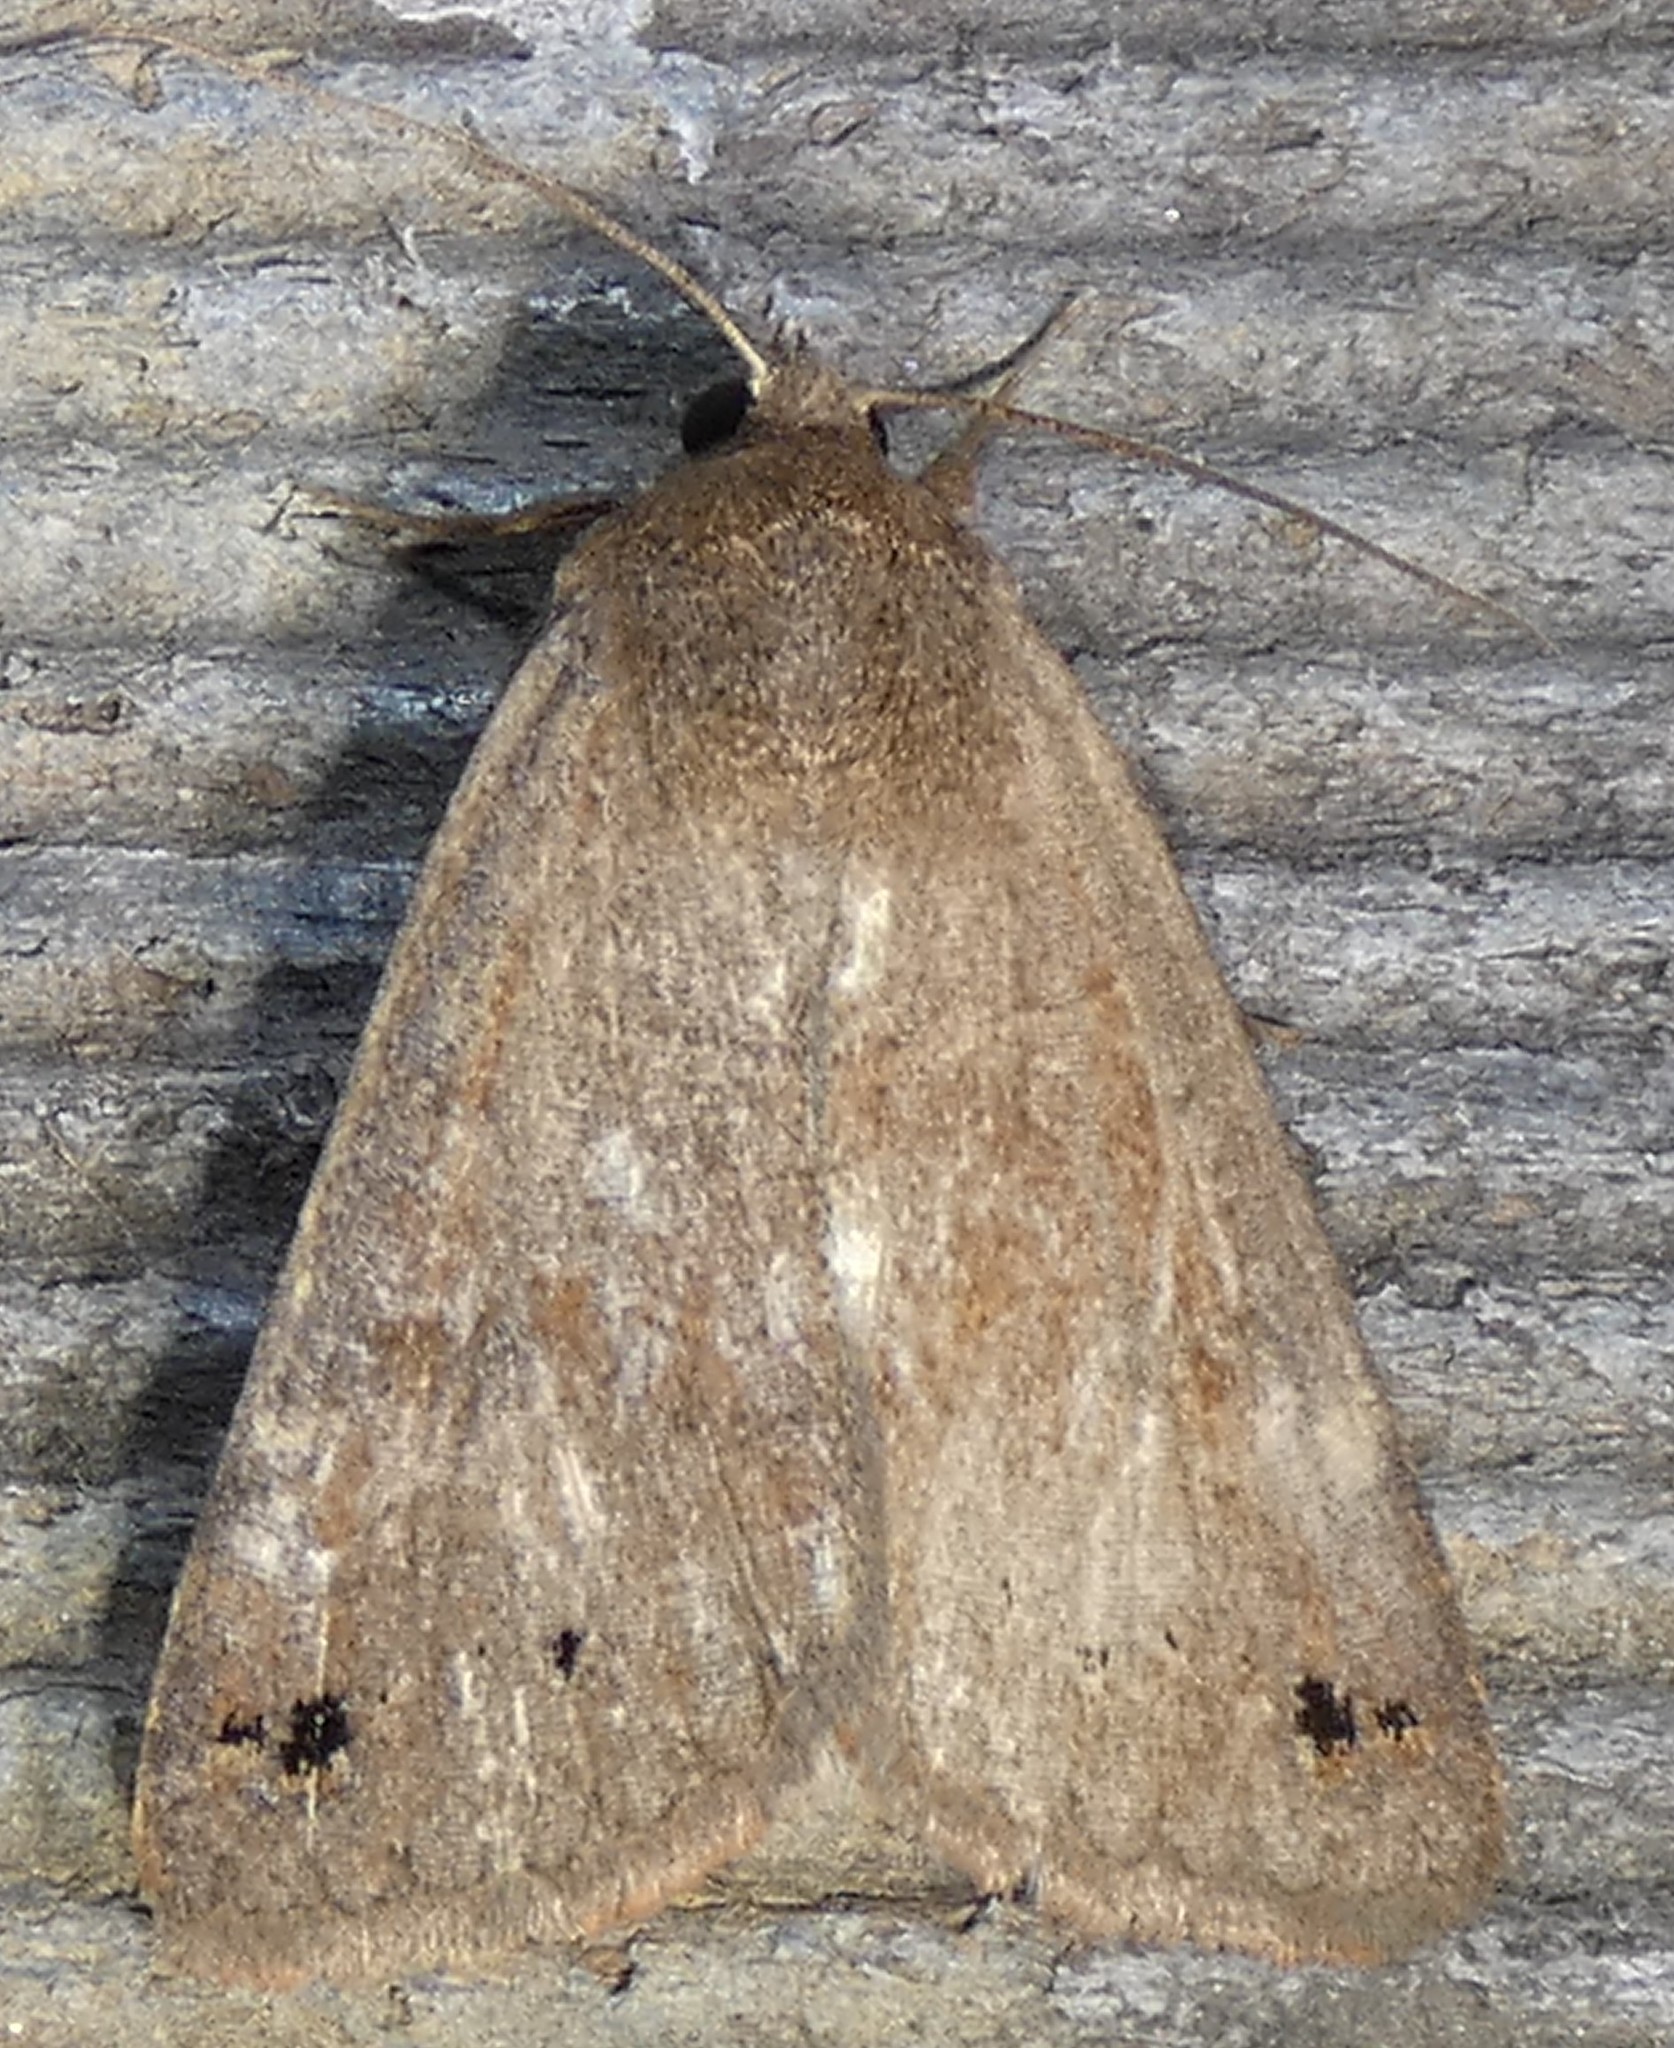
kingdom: Animalia
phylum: Arthropoda
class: Insecta
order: Lepidoptera
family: Erebidae
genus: Cissusa
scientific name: Cissusa spadix
